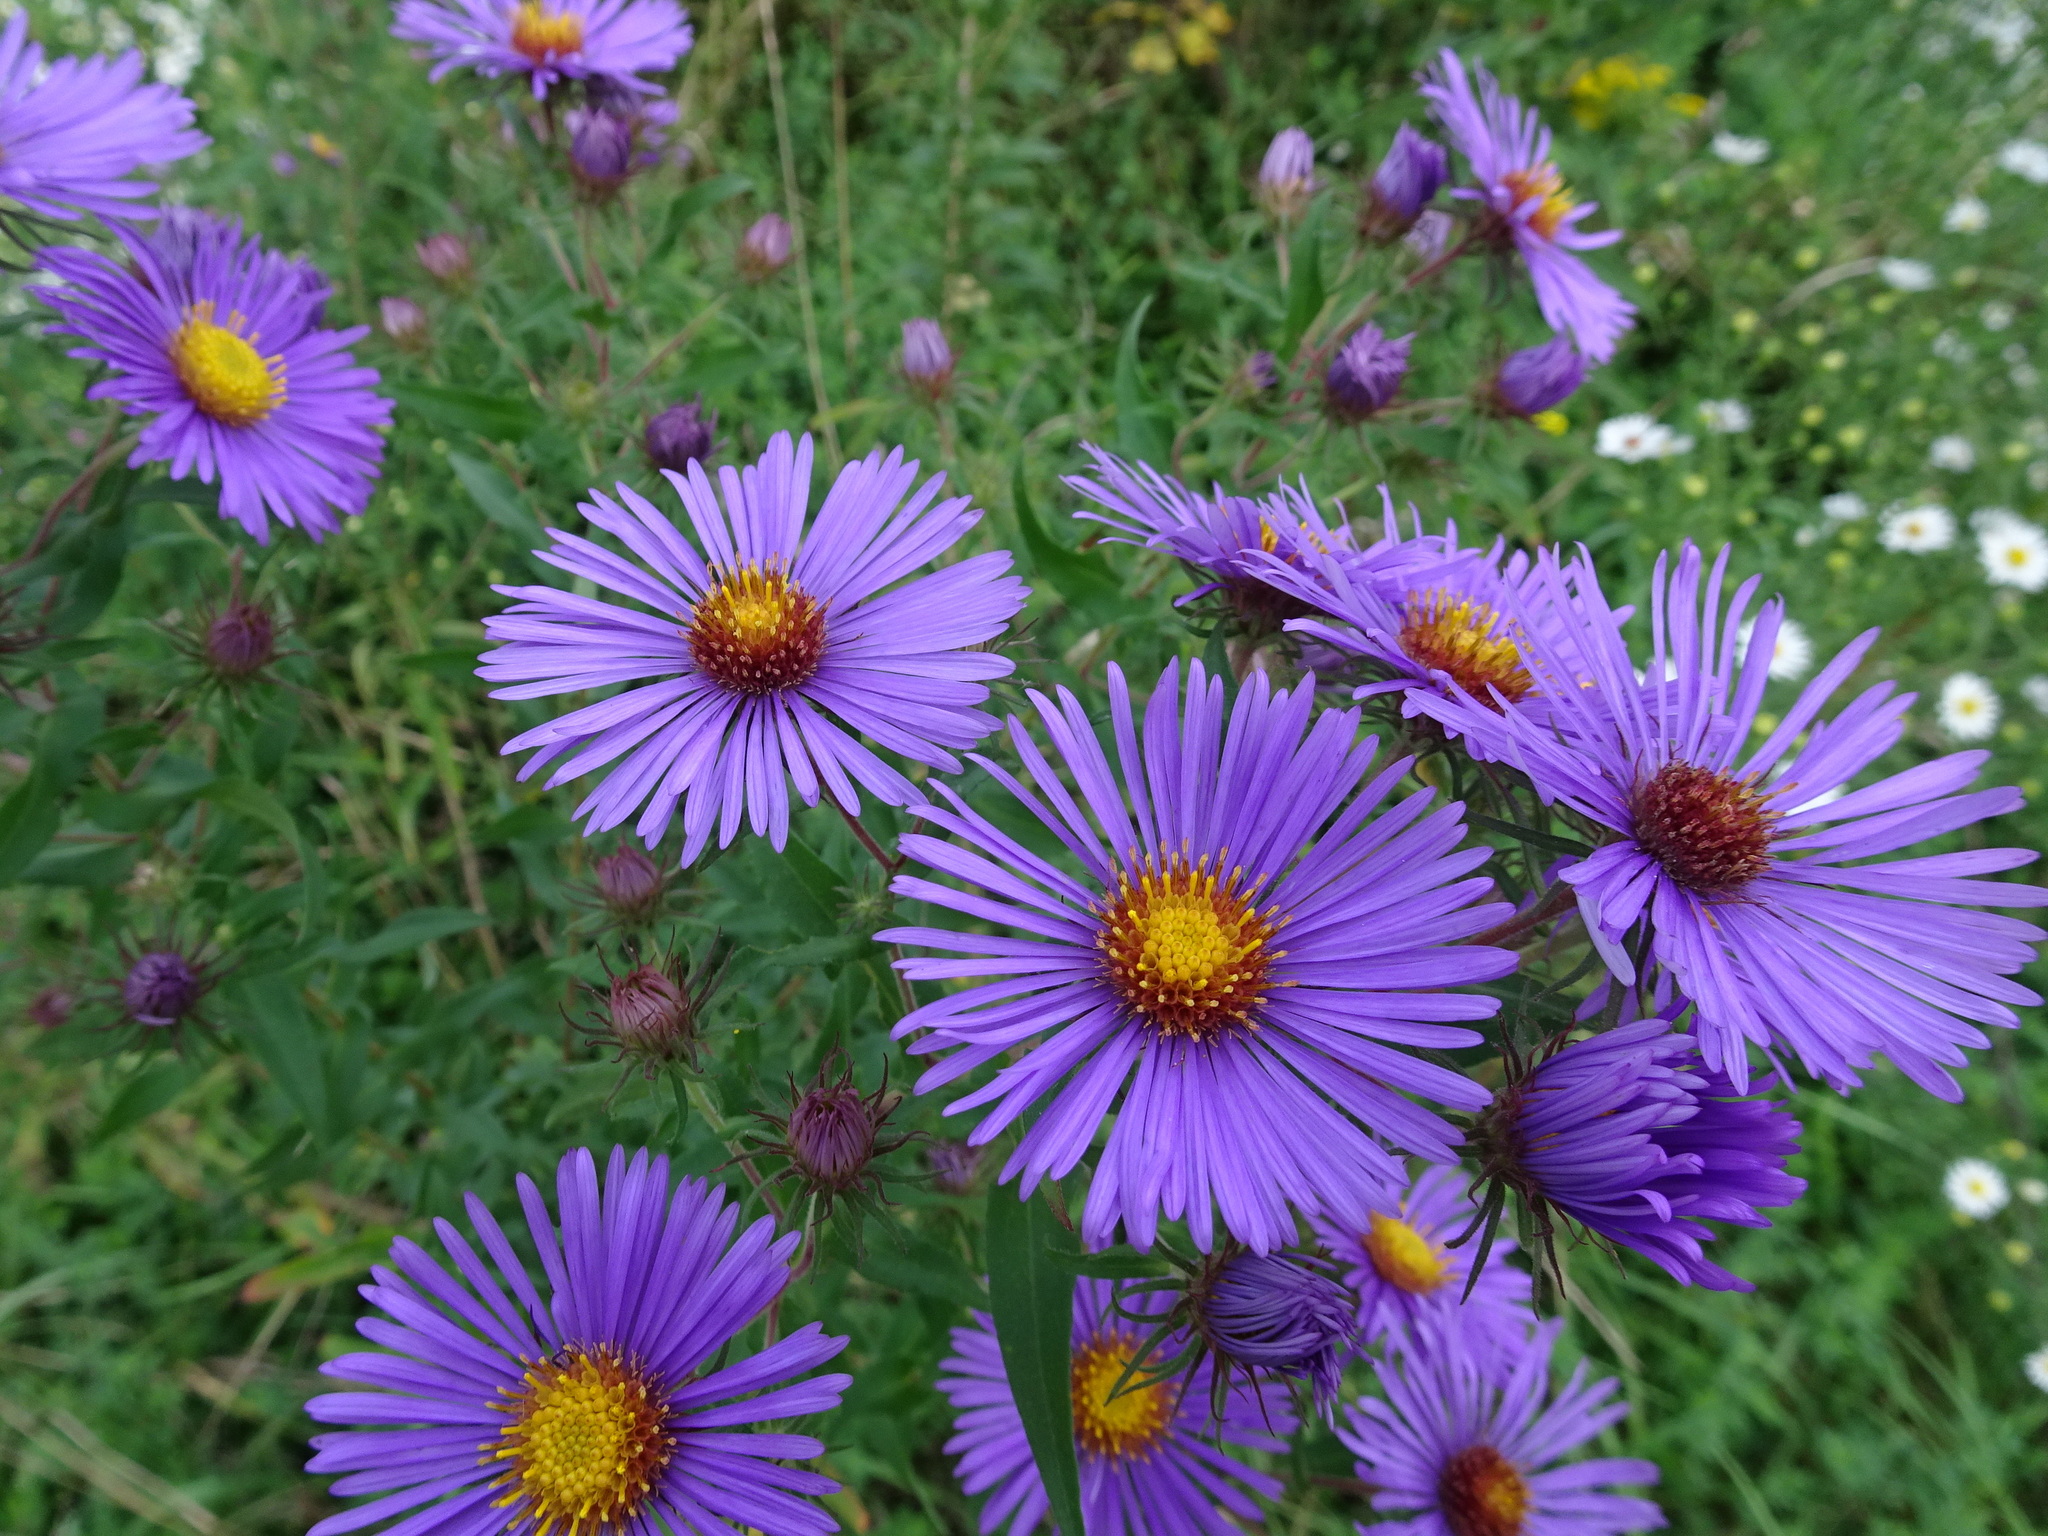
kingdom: Plantae
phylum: Tracheophyta
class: Magnoliopsida
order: Asterales
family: Asteraceae
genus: Symphyotrichum
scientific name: Symphyotrichum novae-angliae
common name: Michaelmas daisy
